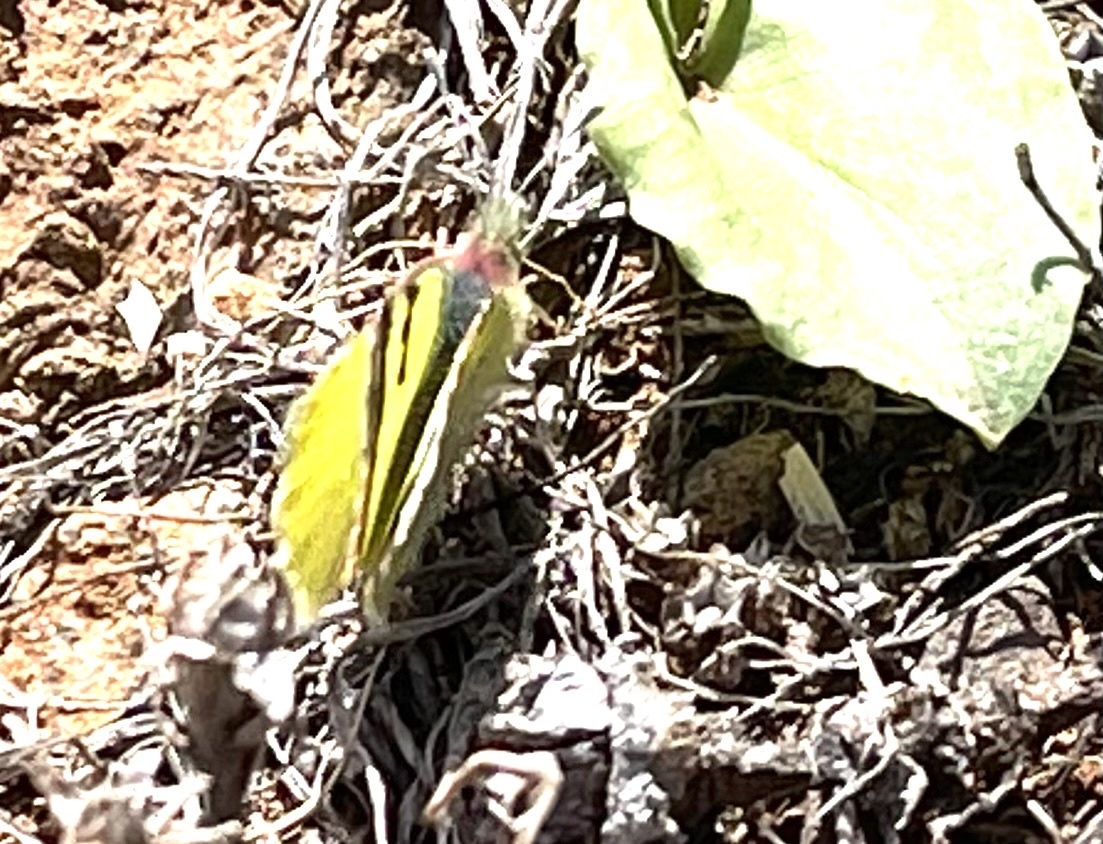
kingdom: Animalia
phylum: Arthropoda
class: Insecta
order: Lepidoptera
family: Pieridae
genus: Elphinstonia
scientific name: Elphinstonia charlonia
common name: Greenish black-tip
